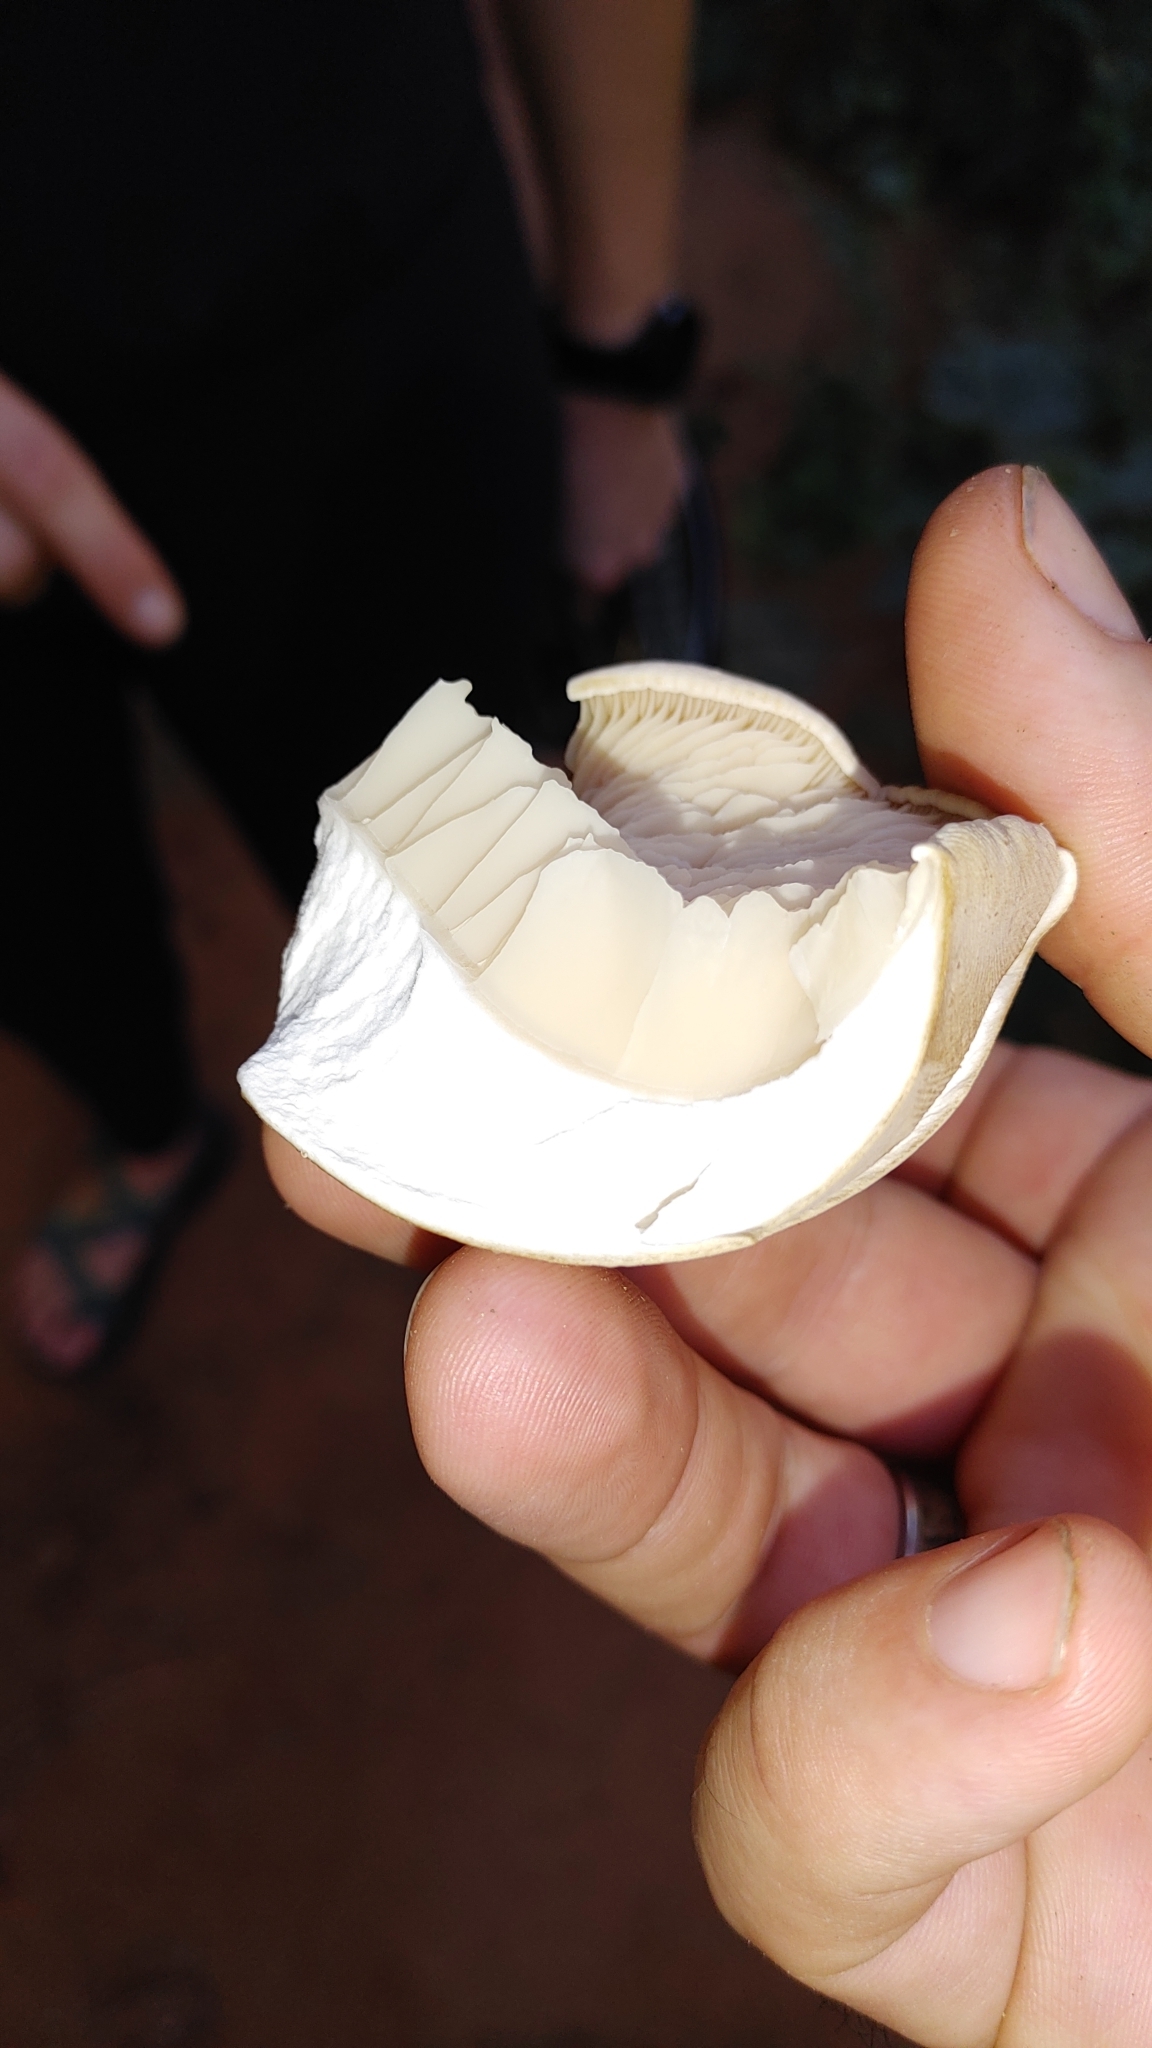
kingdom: Fungi
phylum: Basidiomycota
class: Agaricomycetes
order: Agaricales
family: Callistosporiaceae
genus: Macrocybe
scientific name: Macrocybe titans
